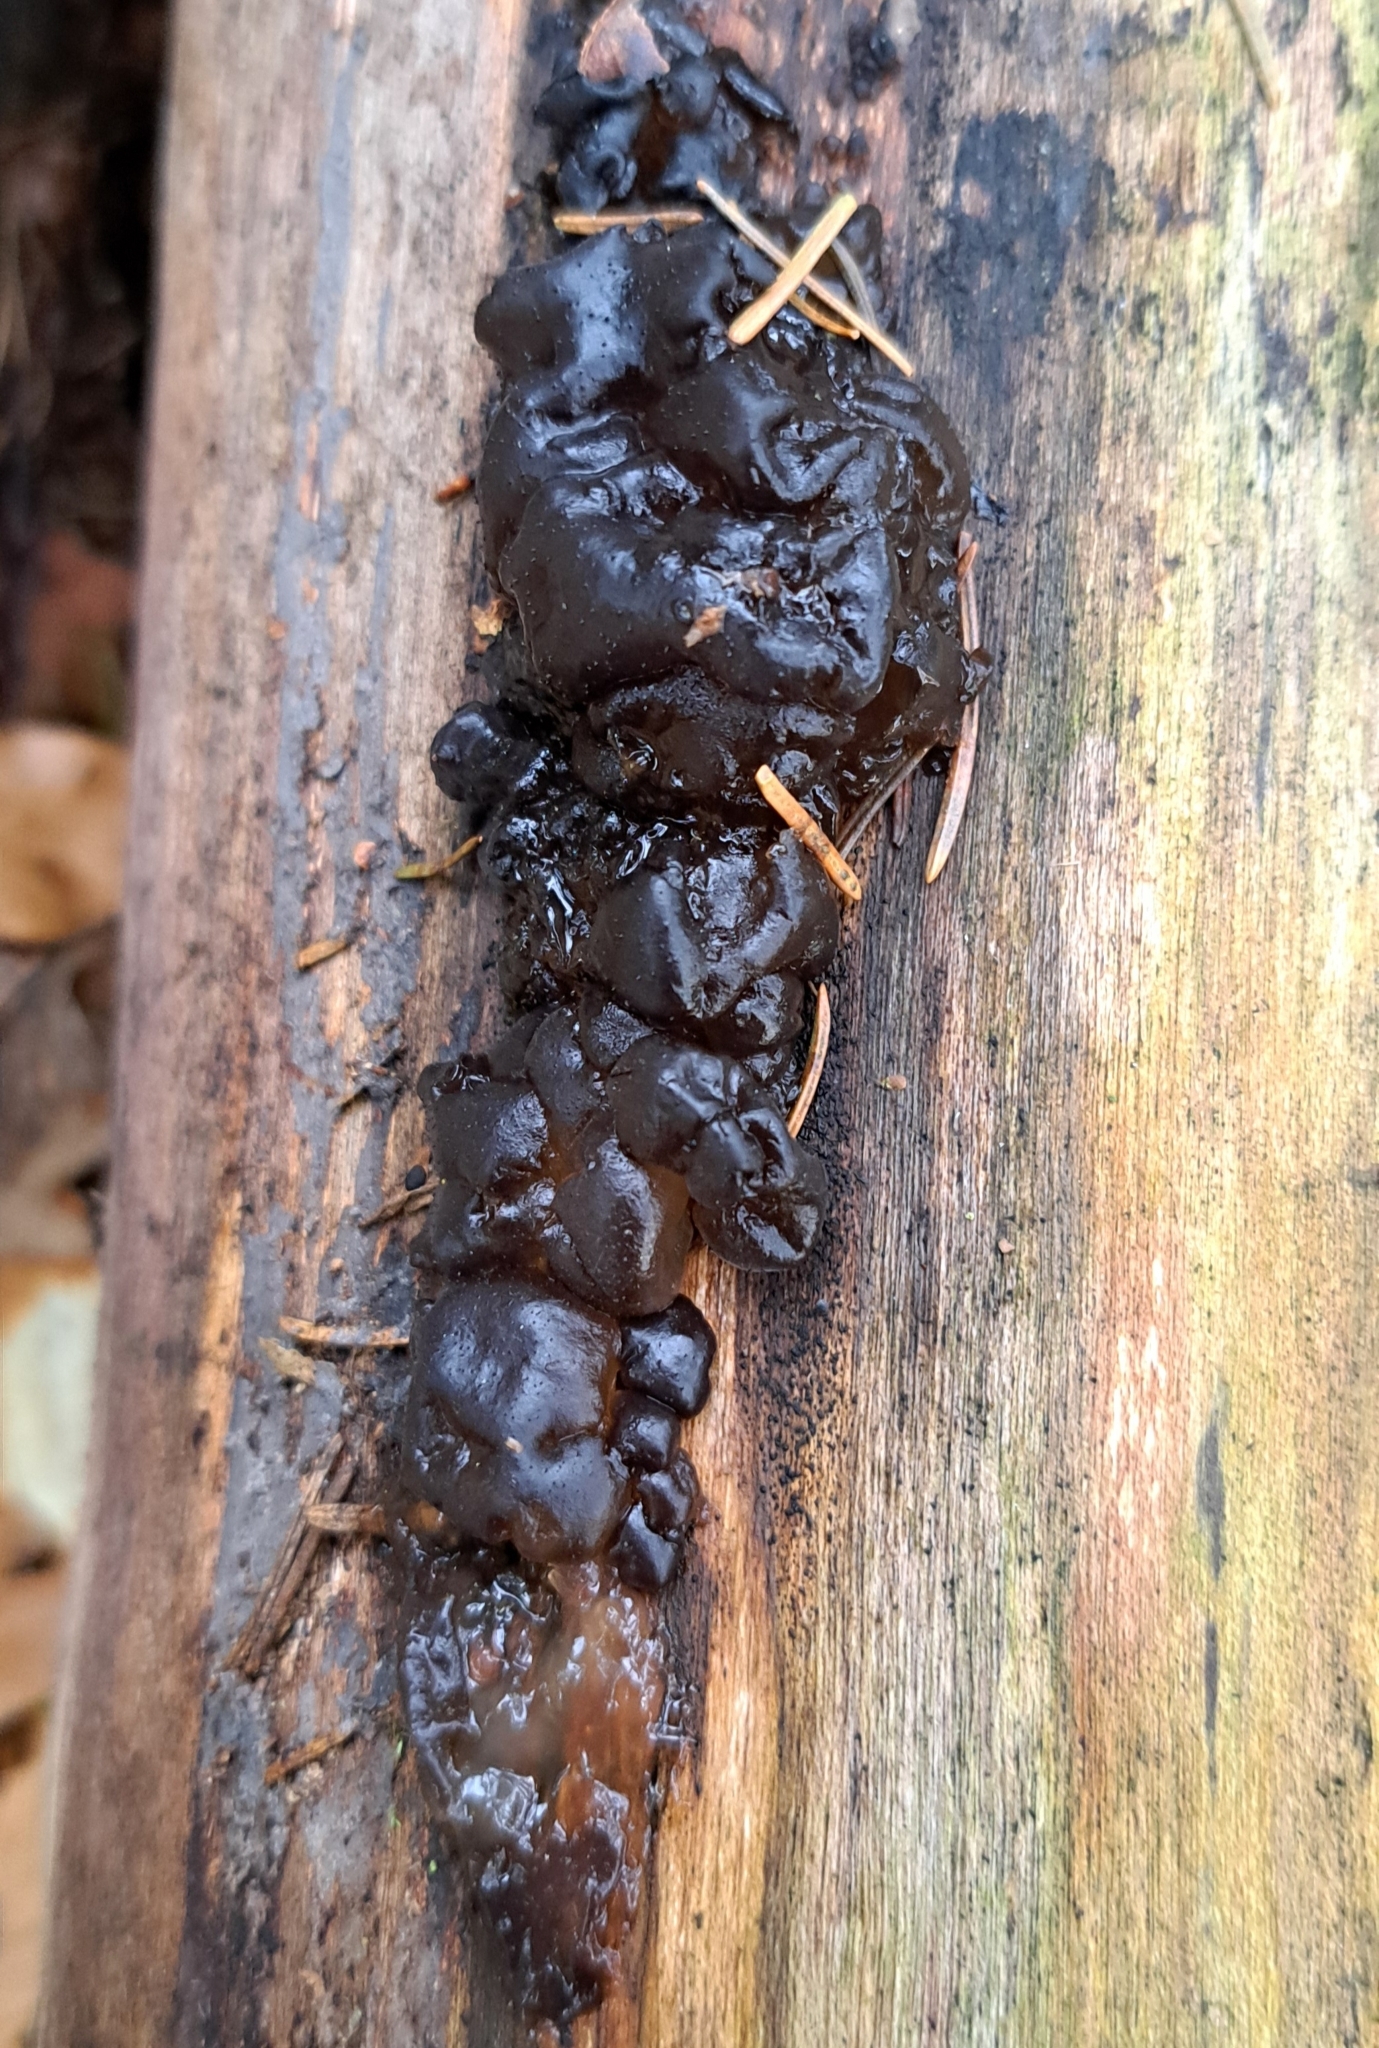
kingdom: Fungi
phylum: Basidiomycota
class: Agaricomycetes
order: Auriculariales
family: Auriculariaceae
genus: Exidia
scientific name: Exidia nigricans
